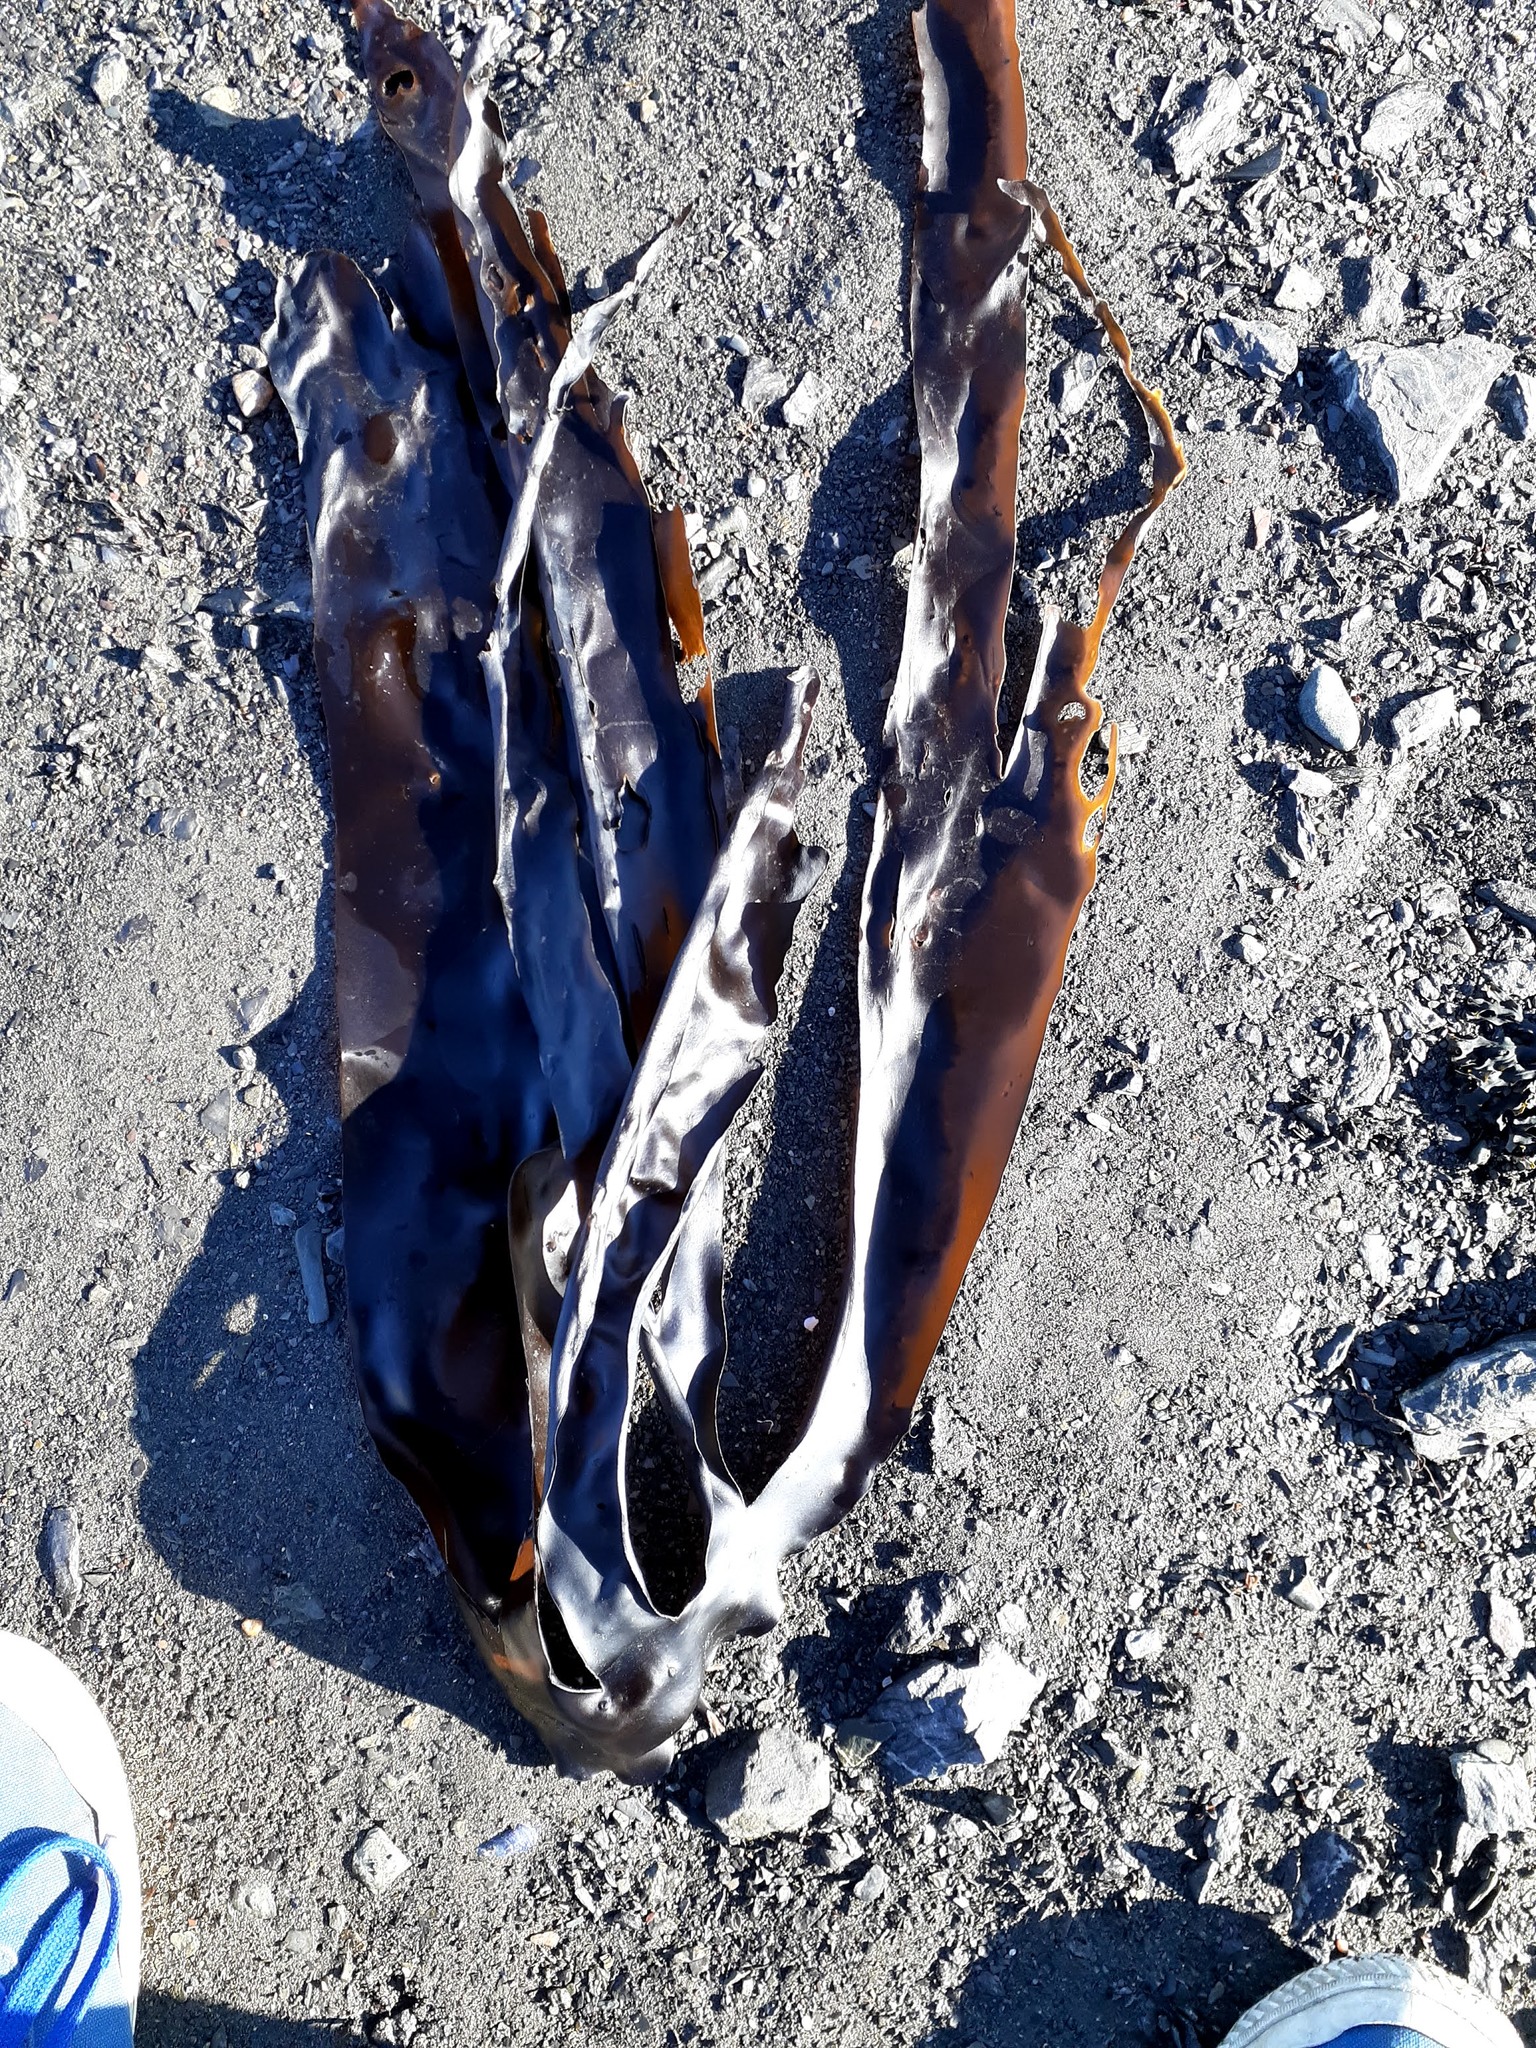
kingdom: Chromista
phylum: Ochrophyta
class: Phaeophyceae
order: Laminariales
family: Laminariaceae
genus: Laminaria
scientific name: Laminaria digitata
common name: Oarweed
